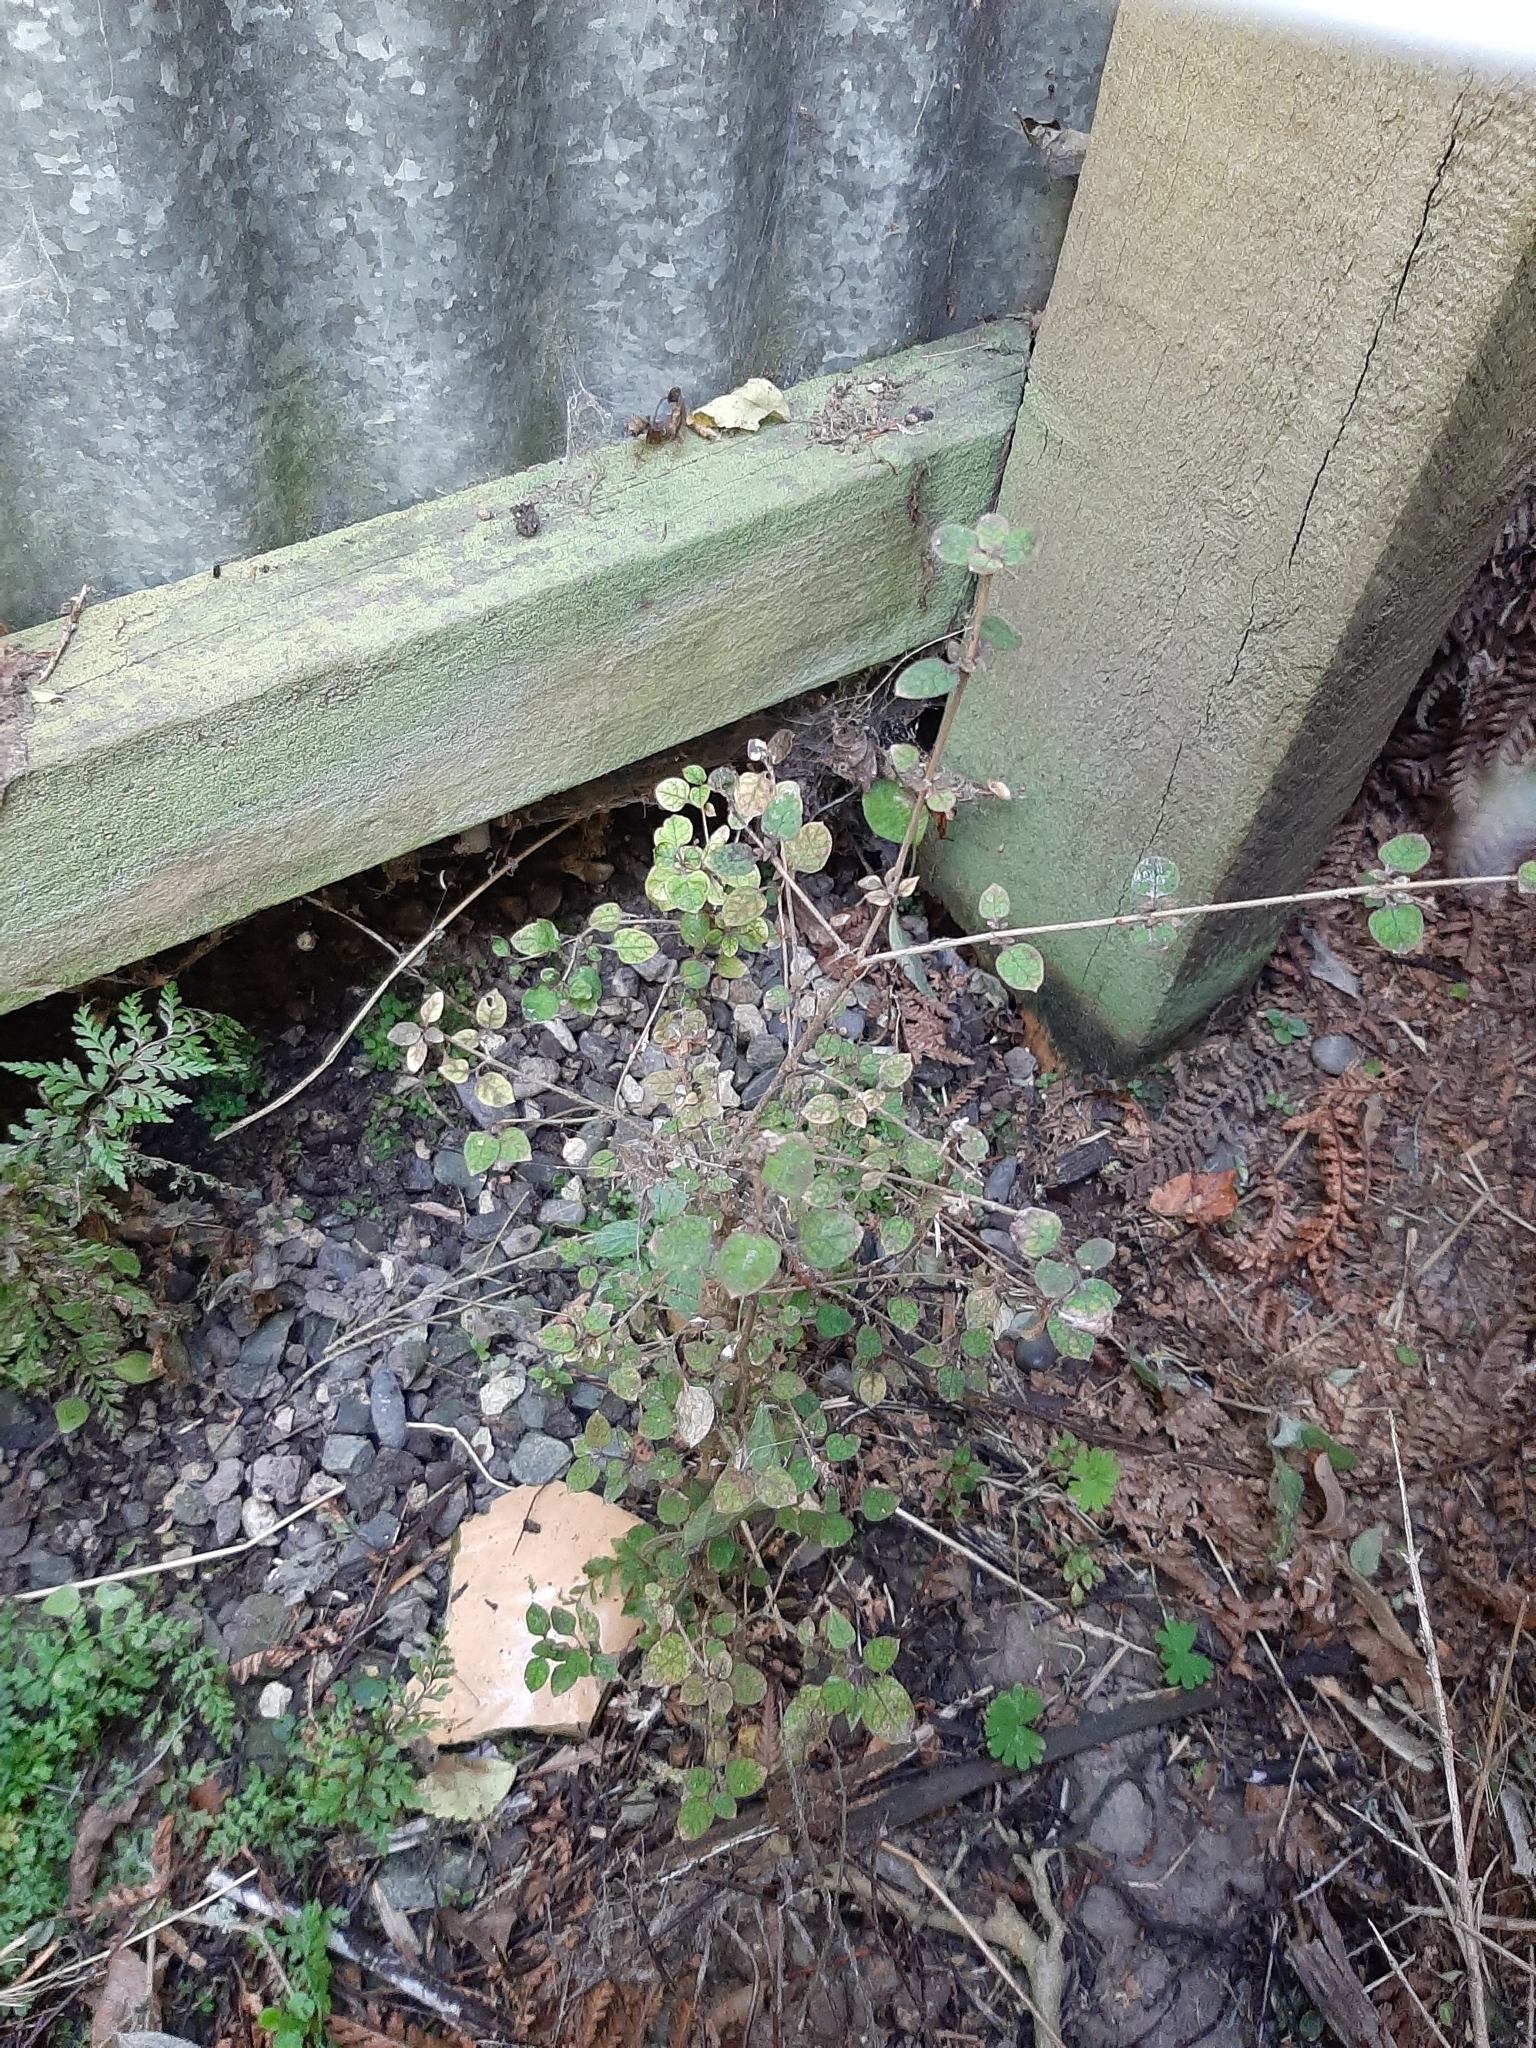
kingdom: Plantae
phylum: Tracheophyta
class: Magnoliopsida
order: Gentianales
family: Rubiaceae
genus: Coprosma
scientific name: Coprosma areolata
